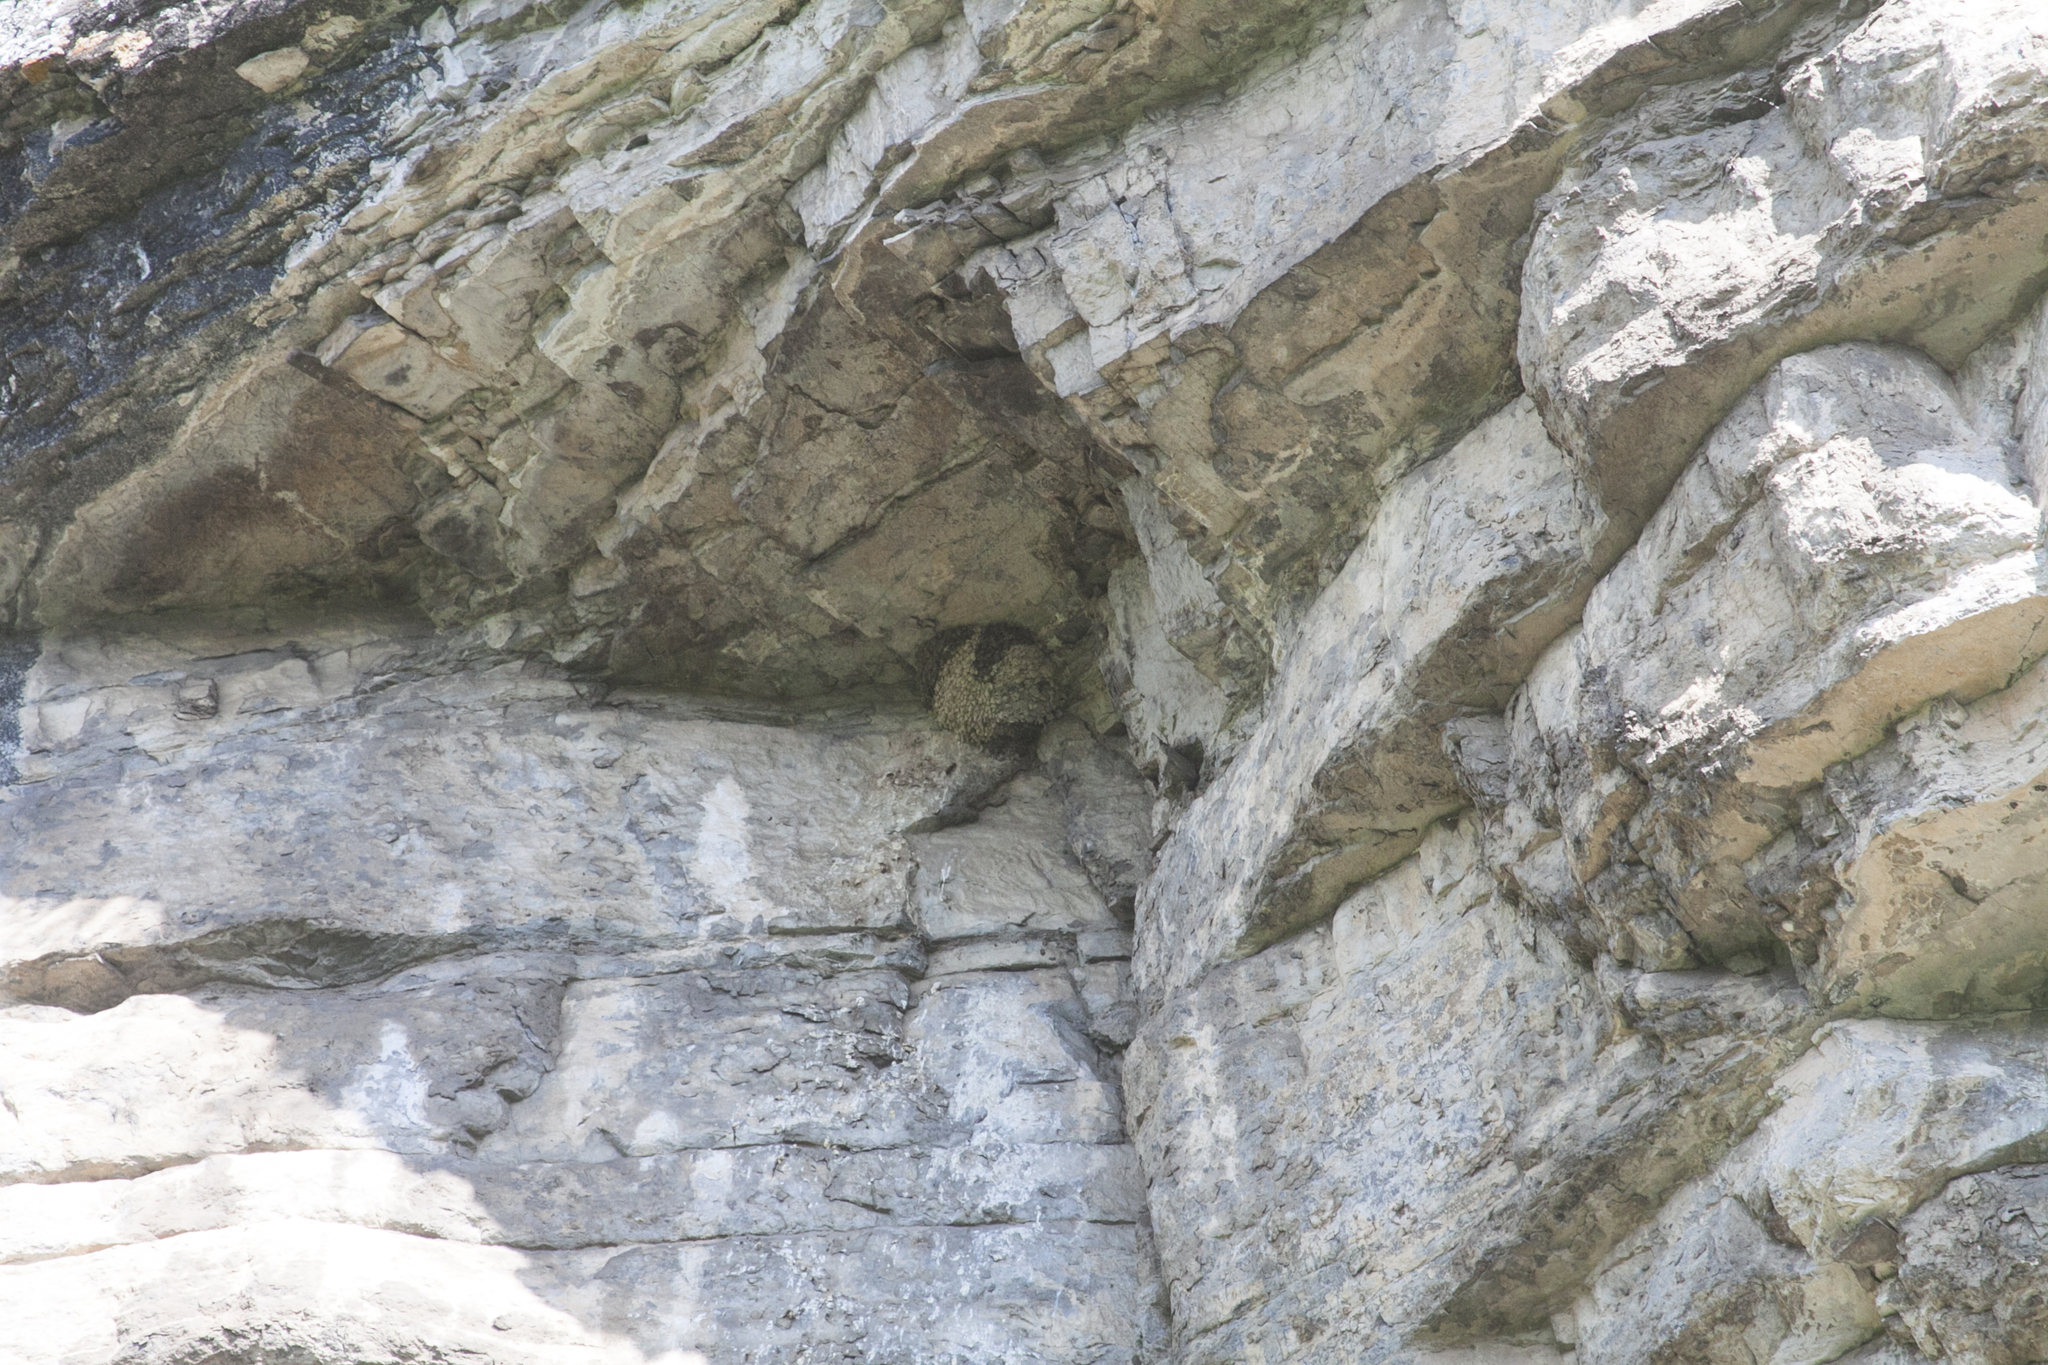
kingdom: Animalia
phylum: Chordata
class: Aves
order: Passeriformes
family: Hirundinidae
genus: Delichon
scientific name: Delichon urbicum
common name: Common house martin
